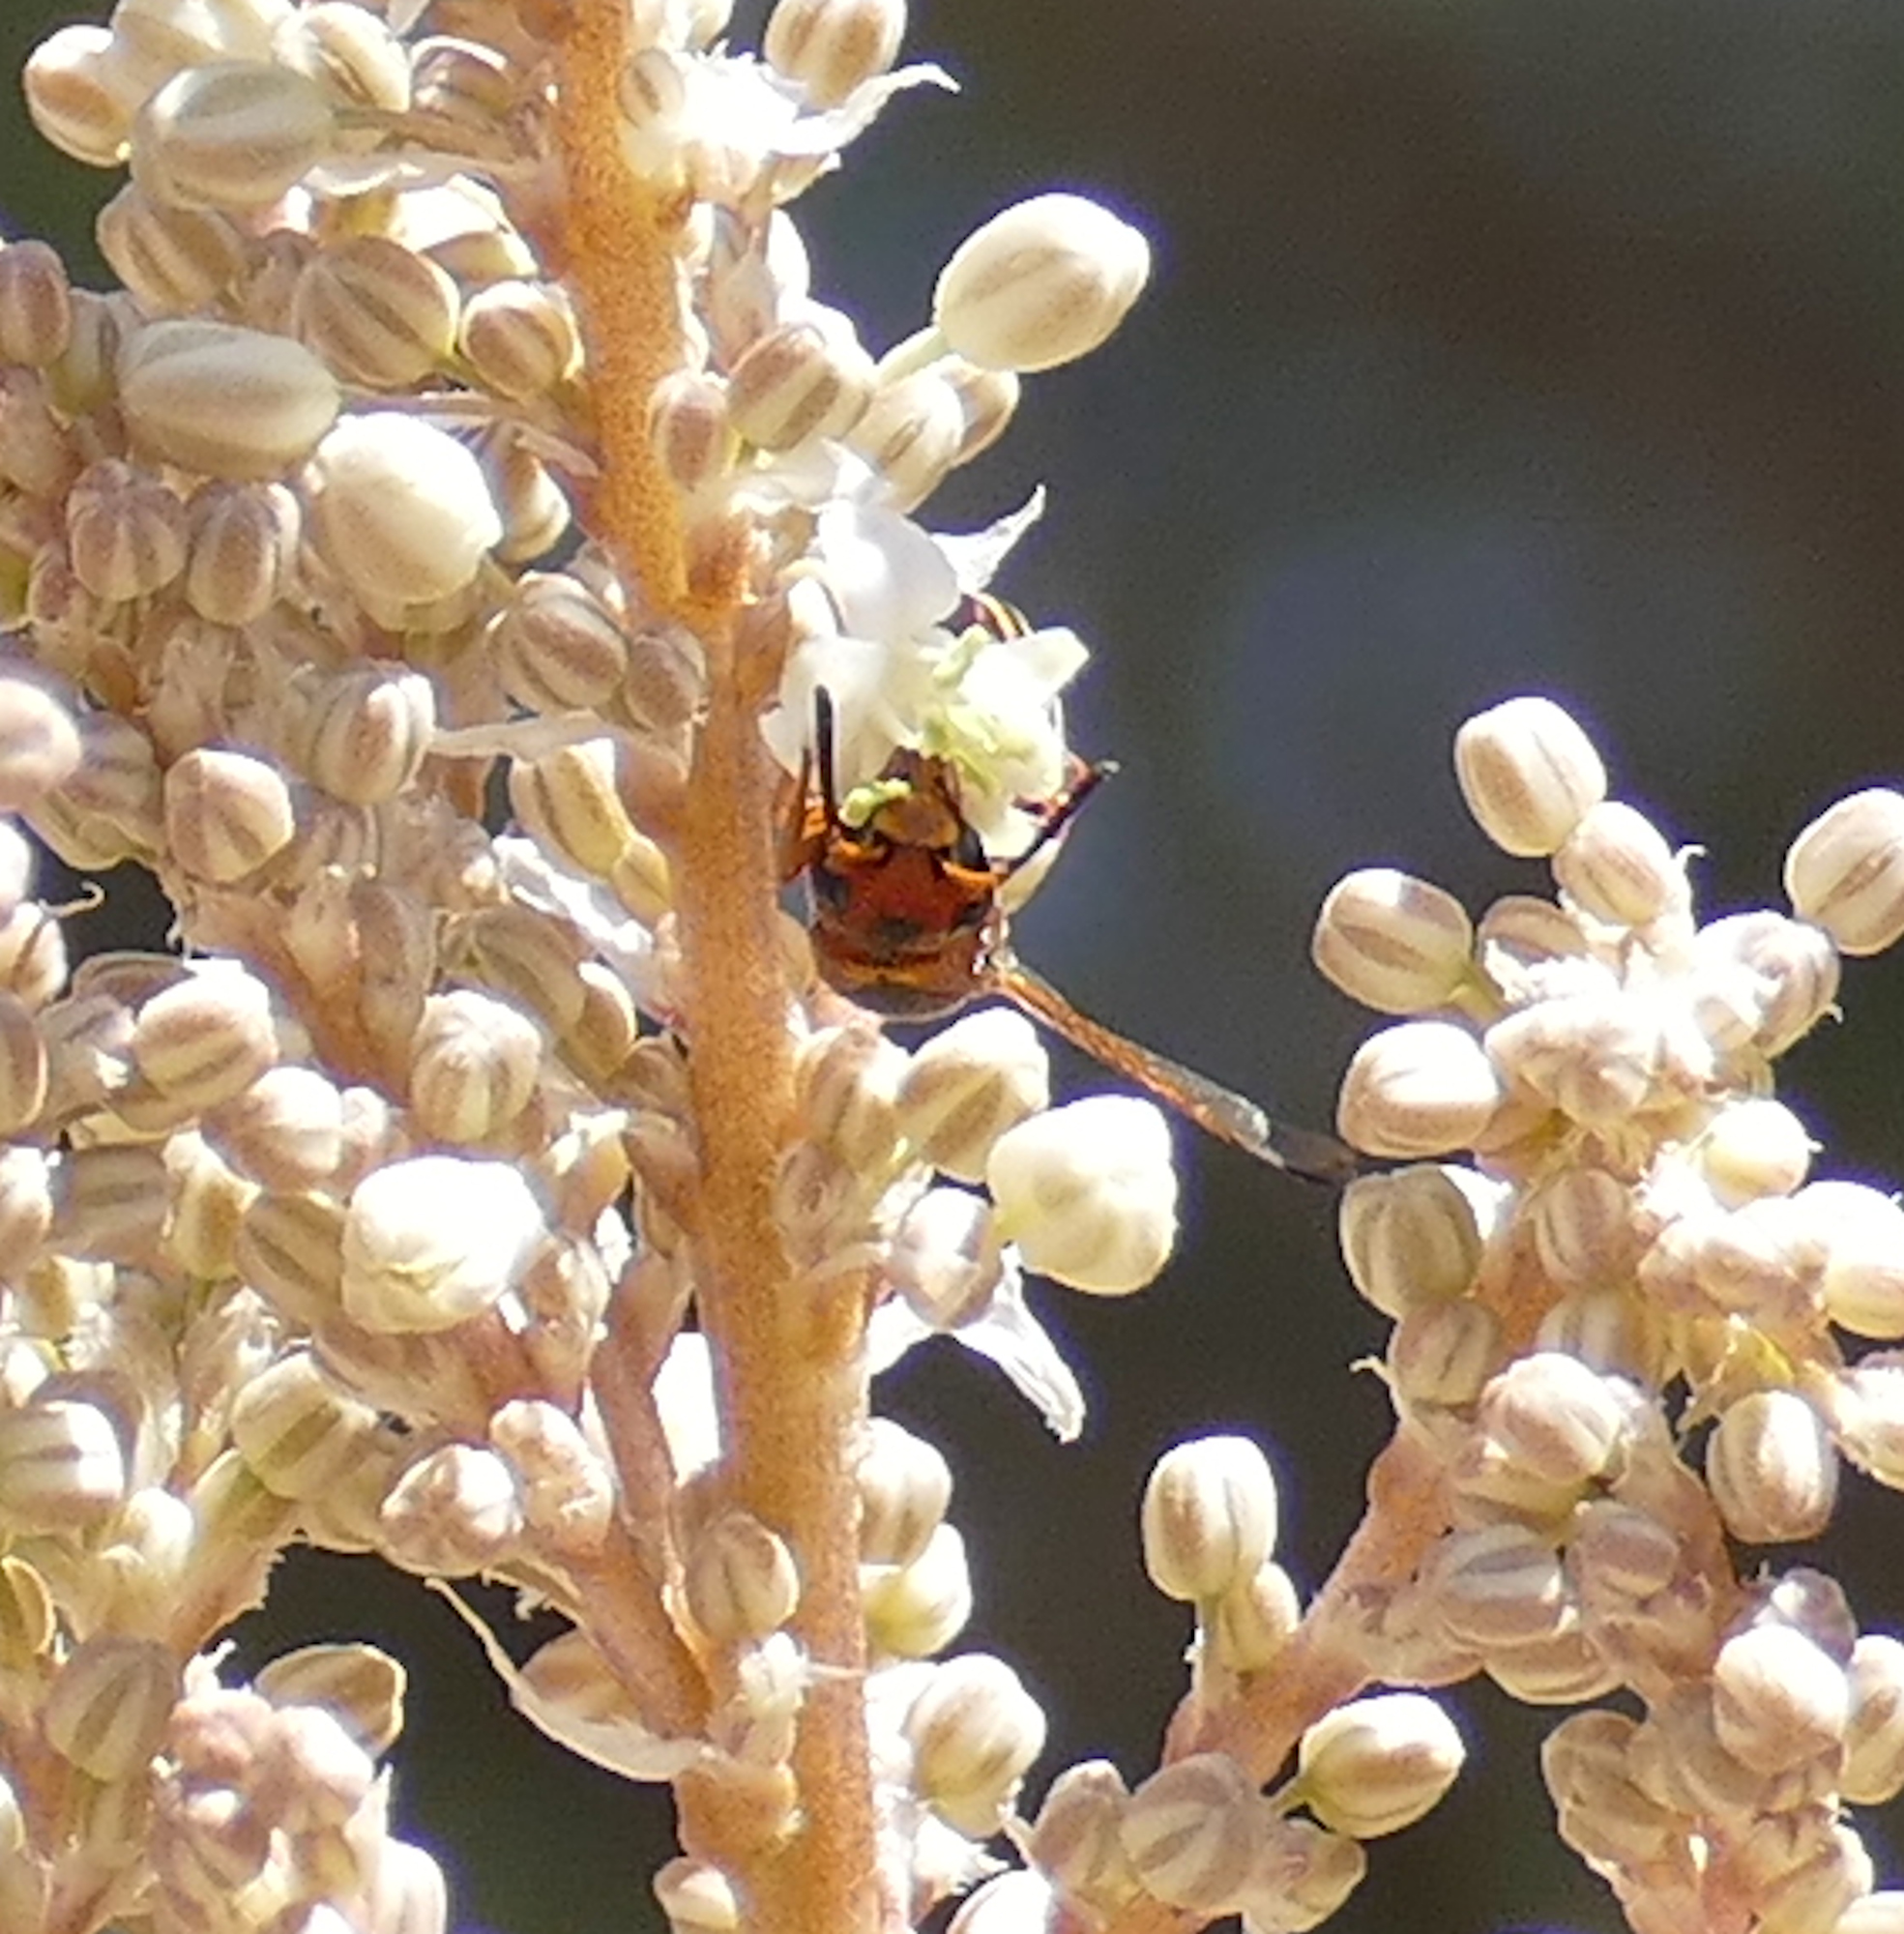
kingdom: Animalia
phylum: Arthropoda
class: Insecta
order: Hymenoptera
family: Eumenidae
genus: Euodynerus
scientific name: Euodynerus annulatus
